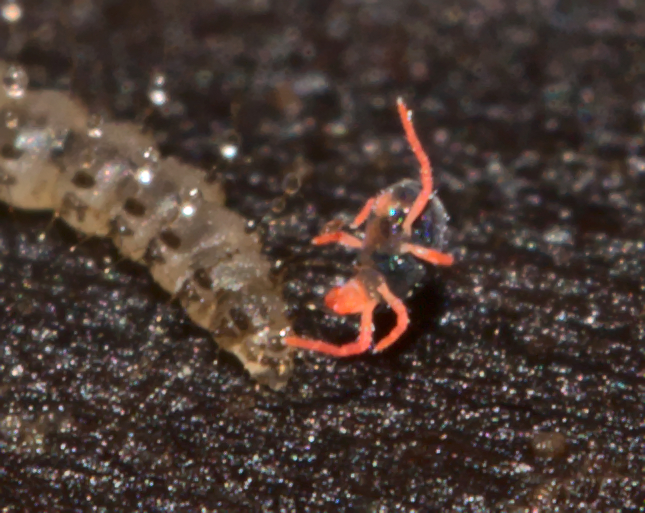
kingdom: Animalia
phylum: Arthropoda
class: Arachnida
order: Trombidiformes
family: Penthaleidae
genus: Penthaleus
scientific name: Penthaleus major
